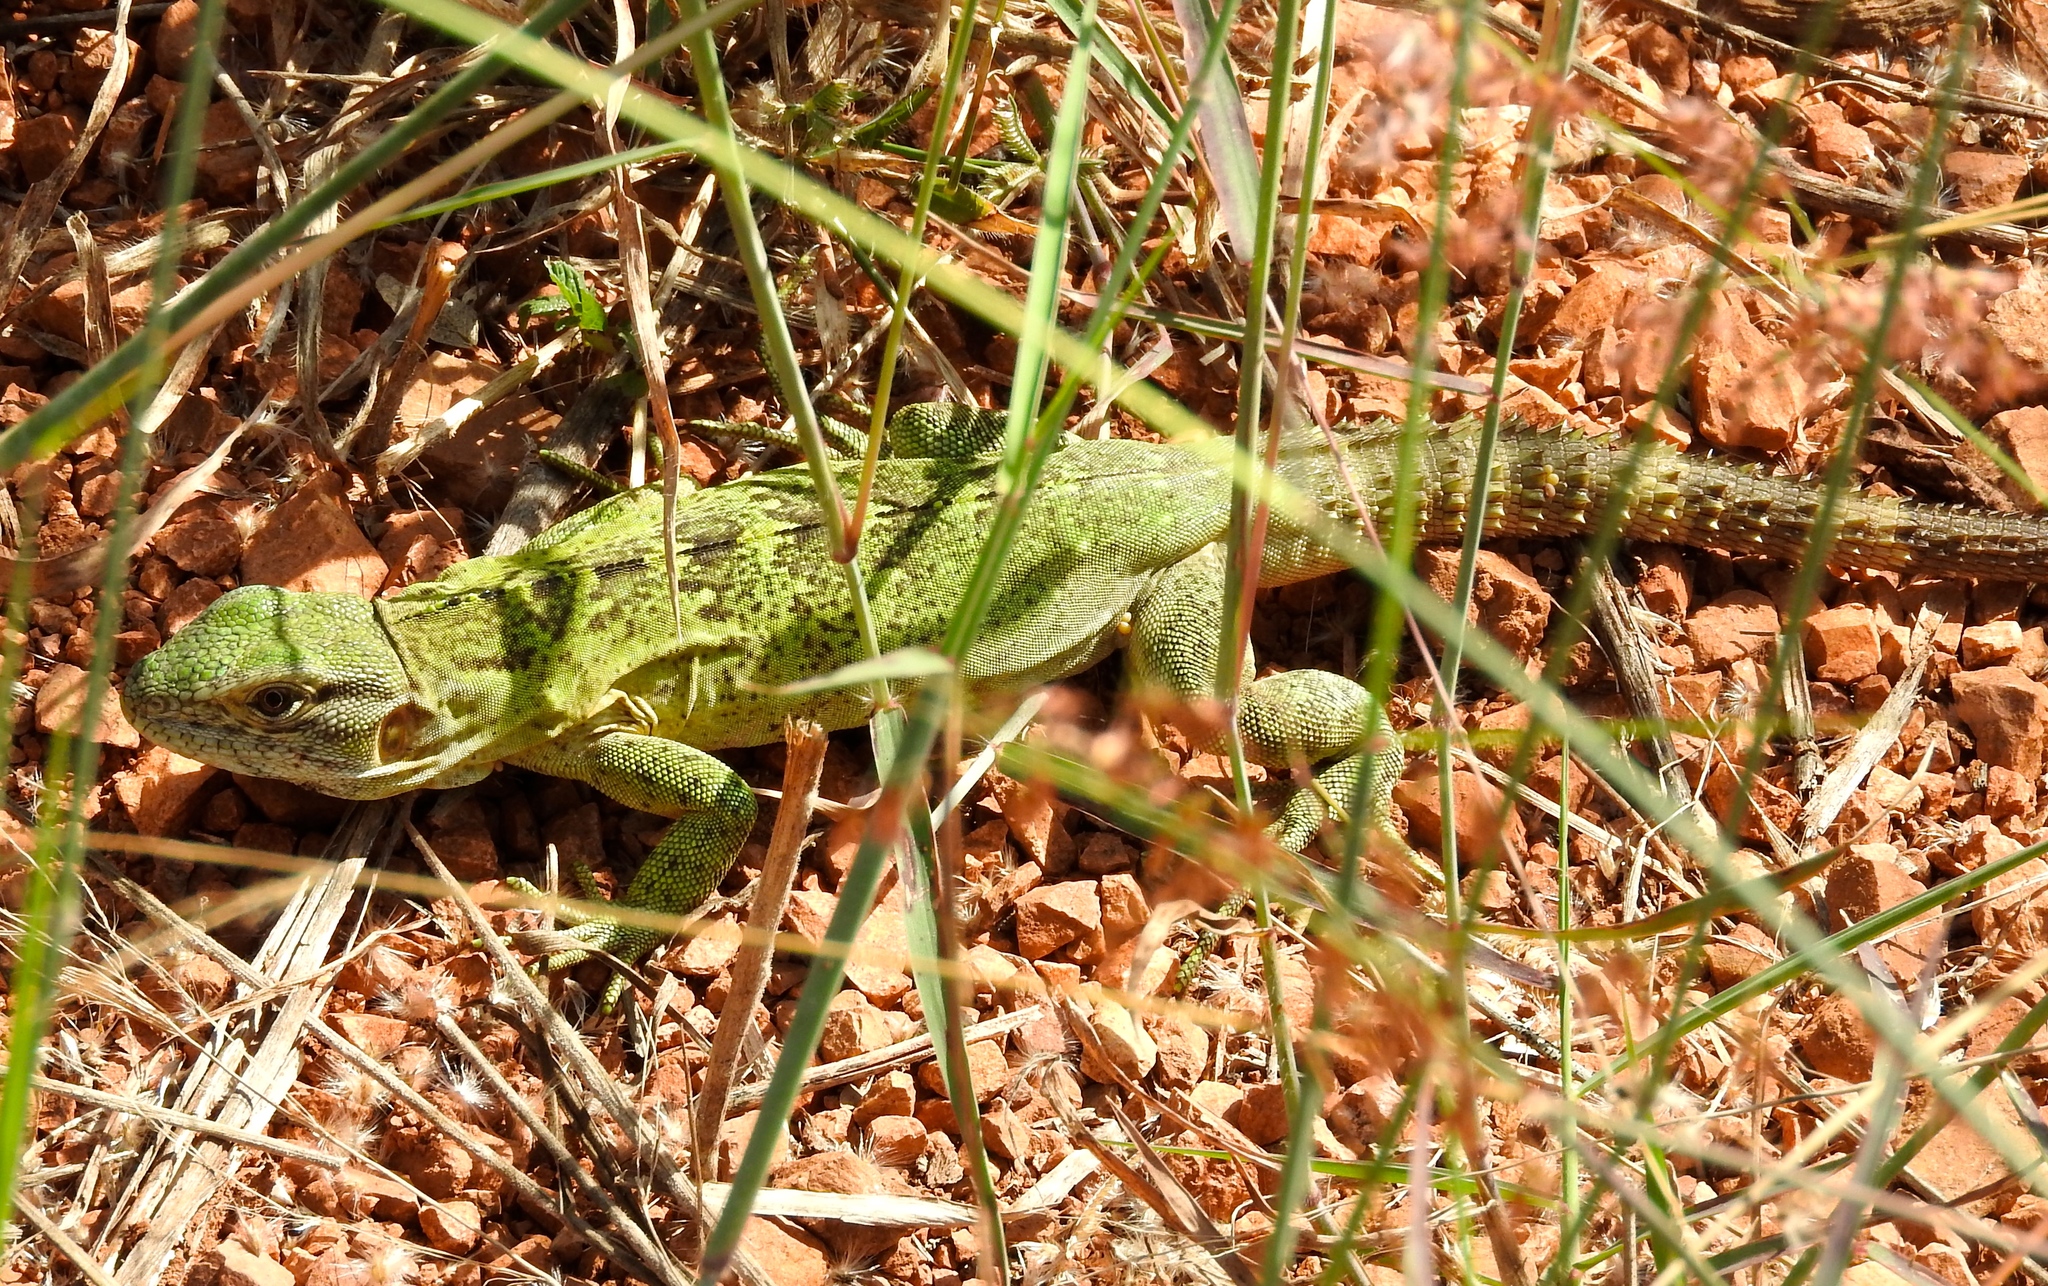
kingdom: Animalia
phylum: Chordata
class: Squamata
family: Iguanidae
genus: Ctenosaura
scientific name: Ctenosaura pectinata
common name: Guerreran spiny-tailed iguana
